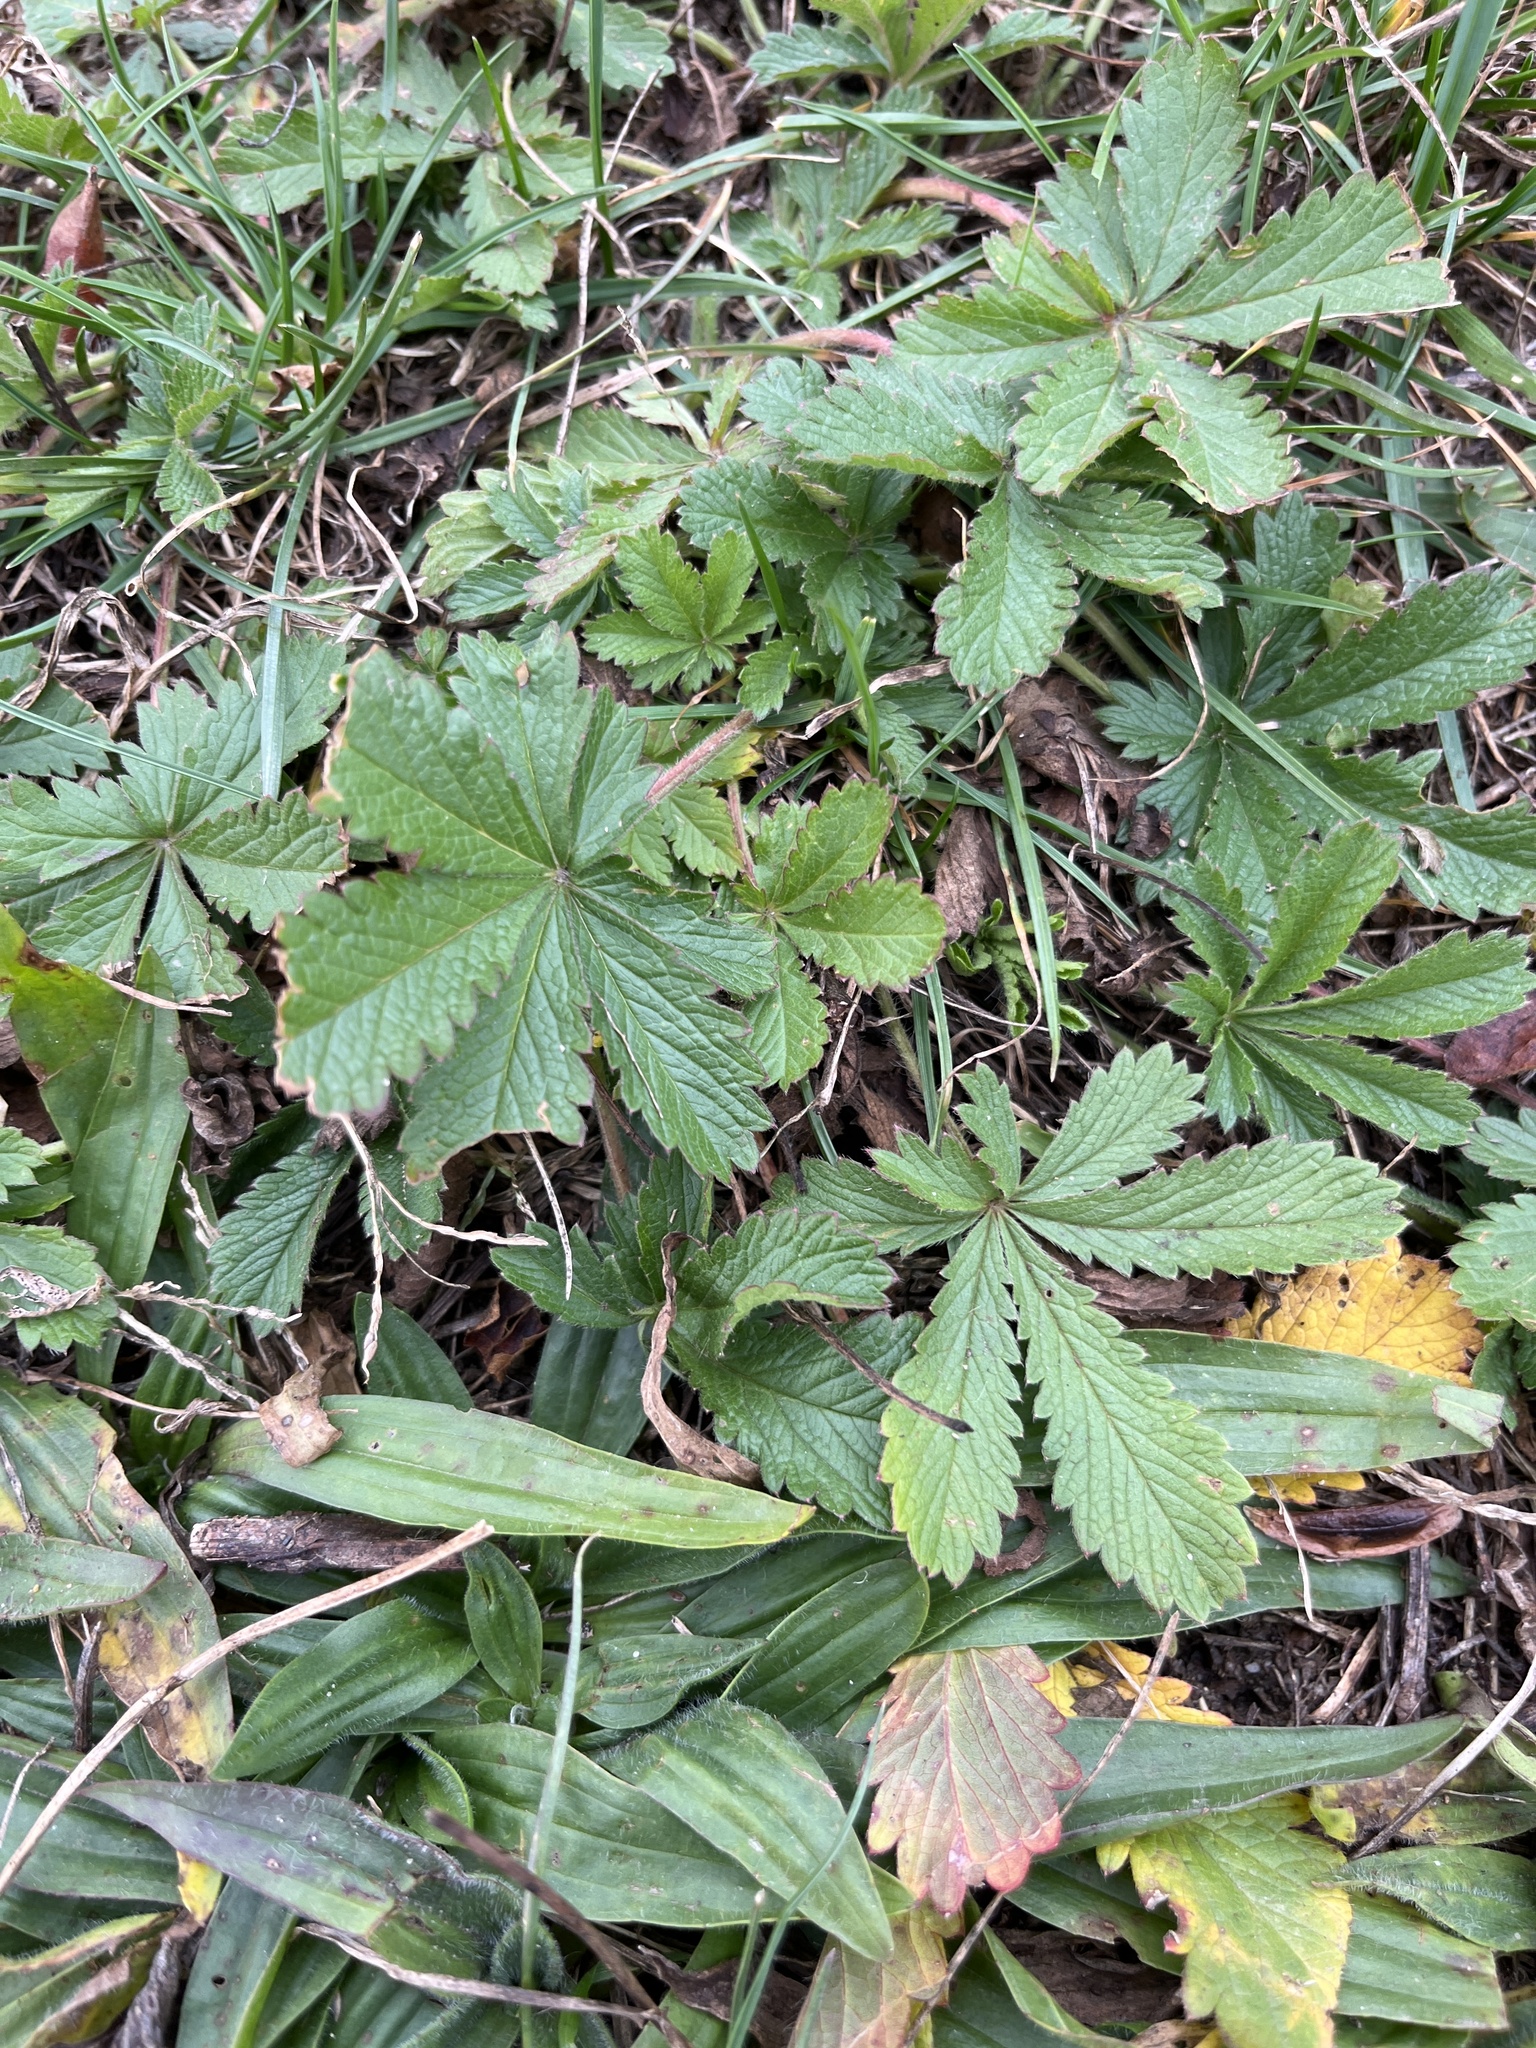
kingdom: Plantae
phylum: Tracheophyta
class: Magnoliopsida
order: Rosales
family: Rosaceae
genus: Potentilla
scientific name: Potentilla recta
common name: Sulphur cinquefoil
